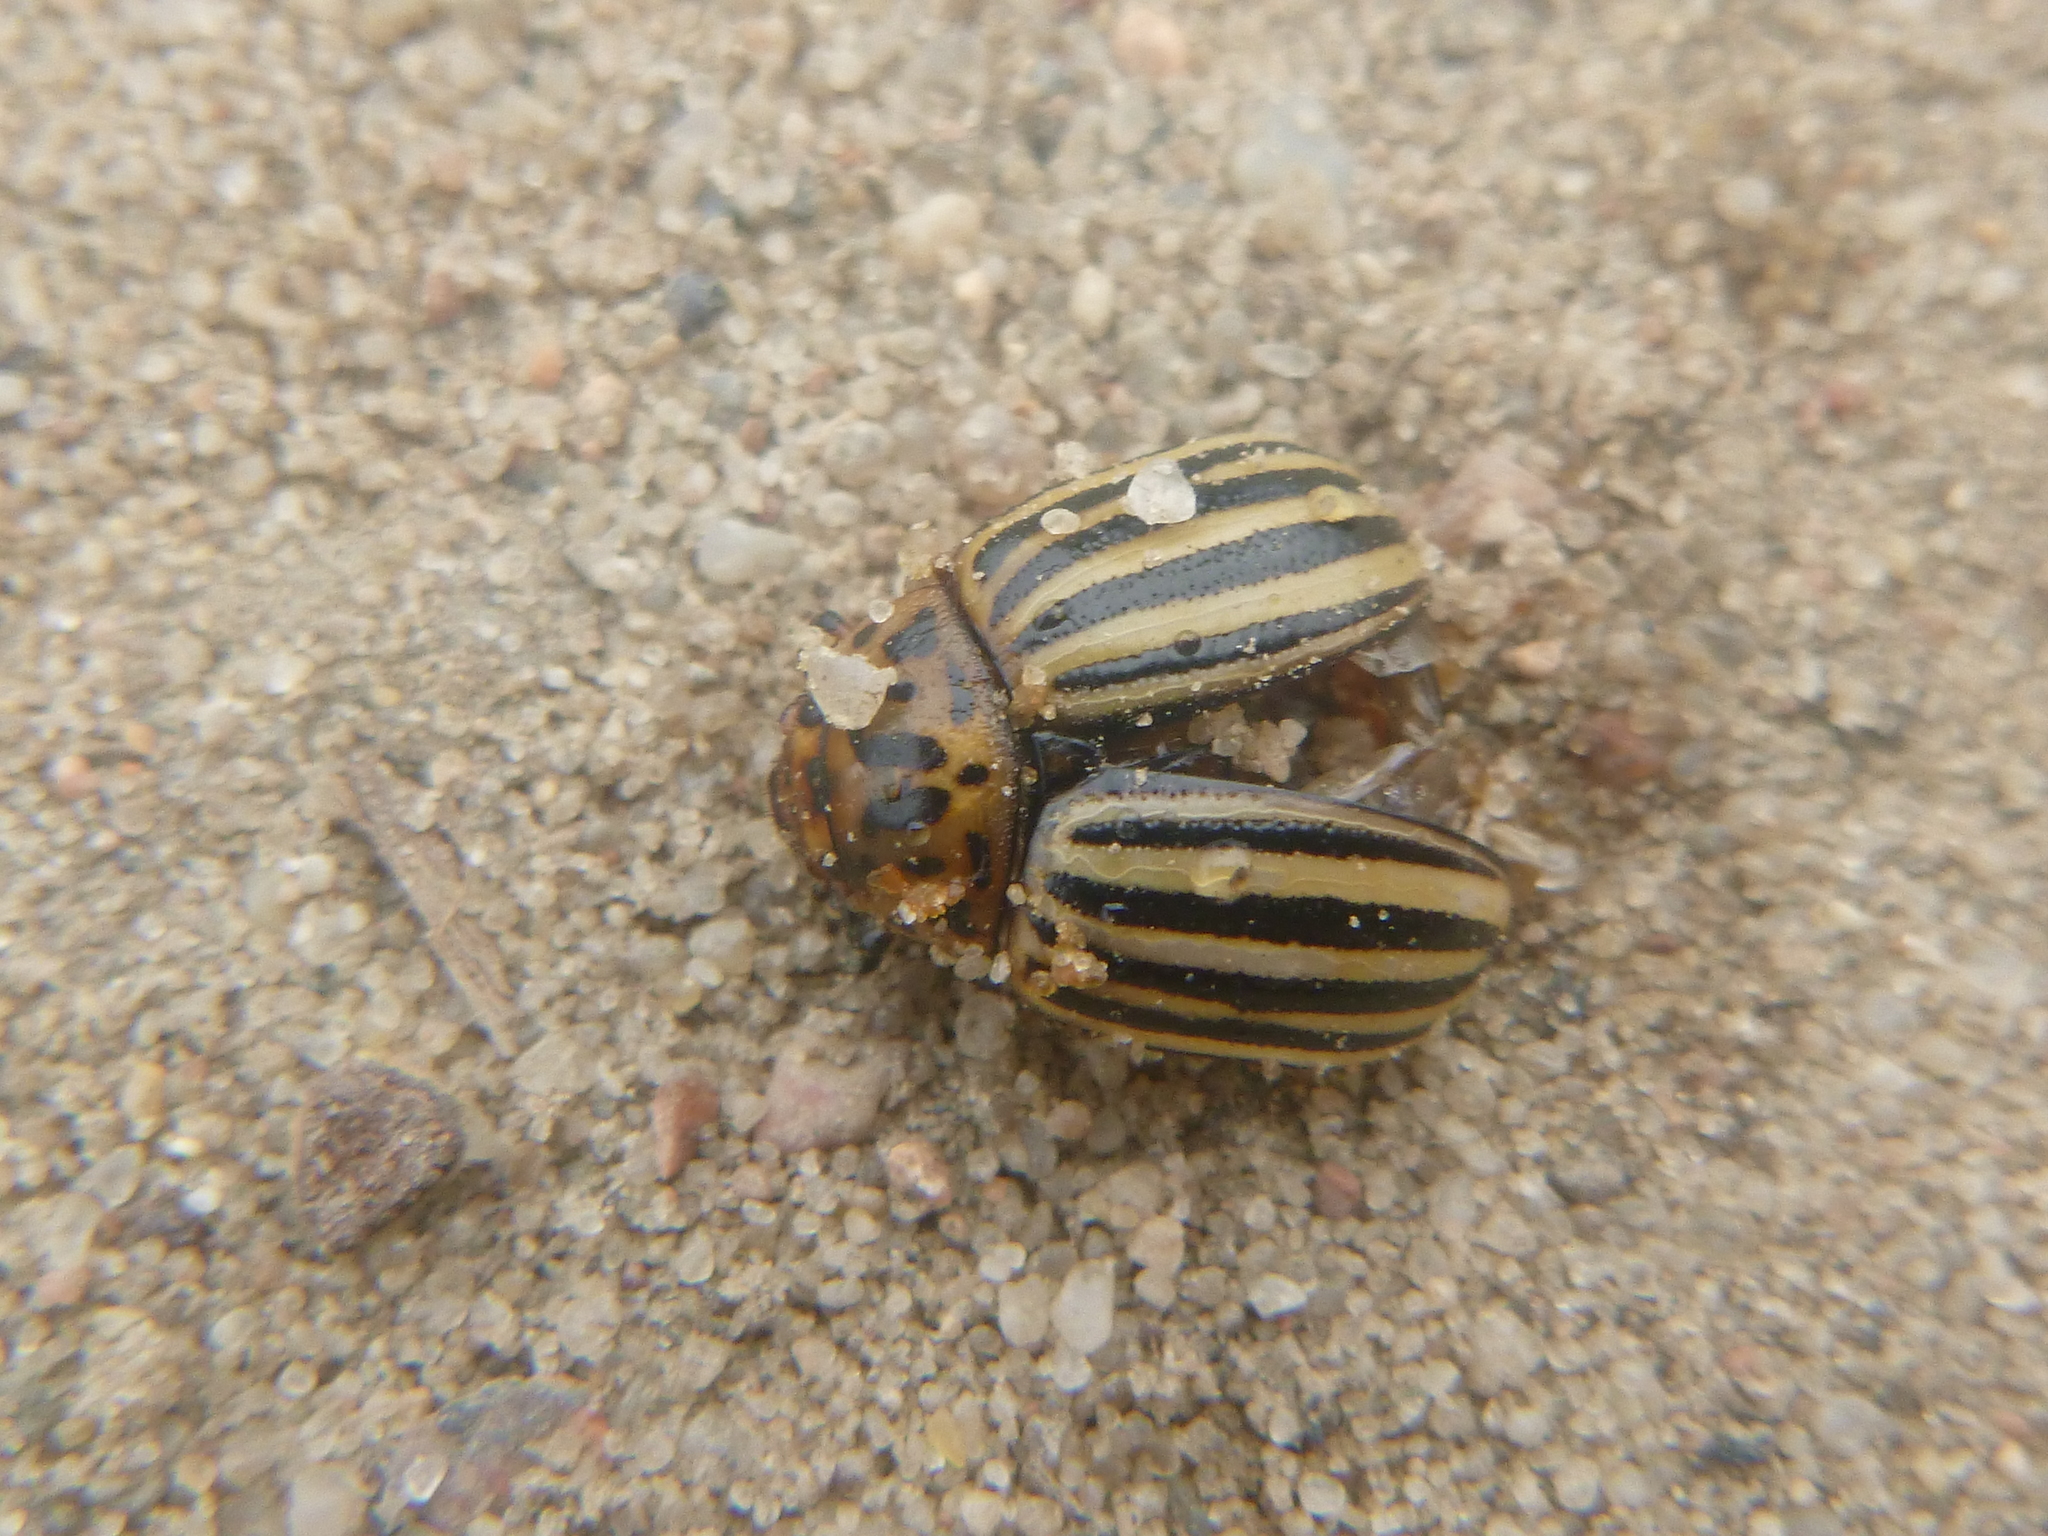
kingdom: Animalia
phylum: Arthropoda
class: Insecta
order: Coleoptera
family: Chrysomelidae
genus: Leptinotarsa
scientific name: Leptinotarsa decemlineata
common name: Colorado potato beetle
